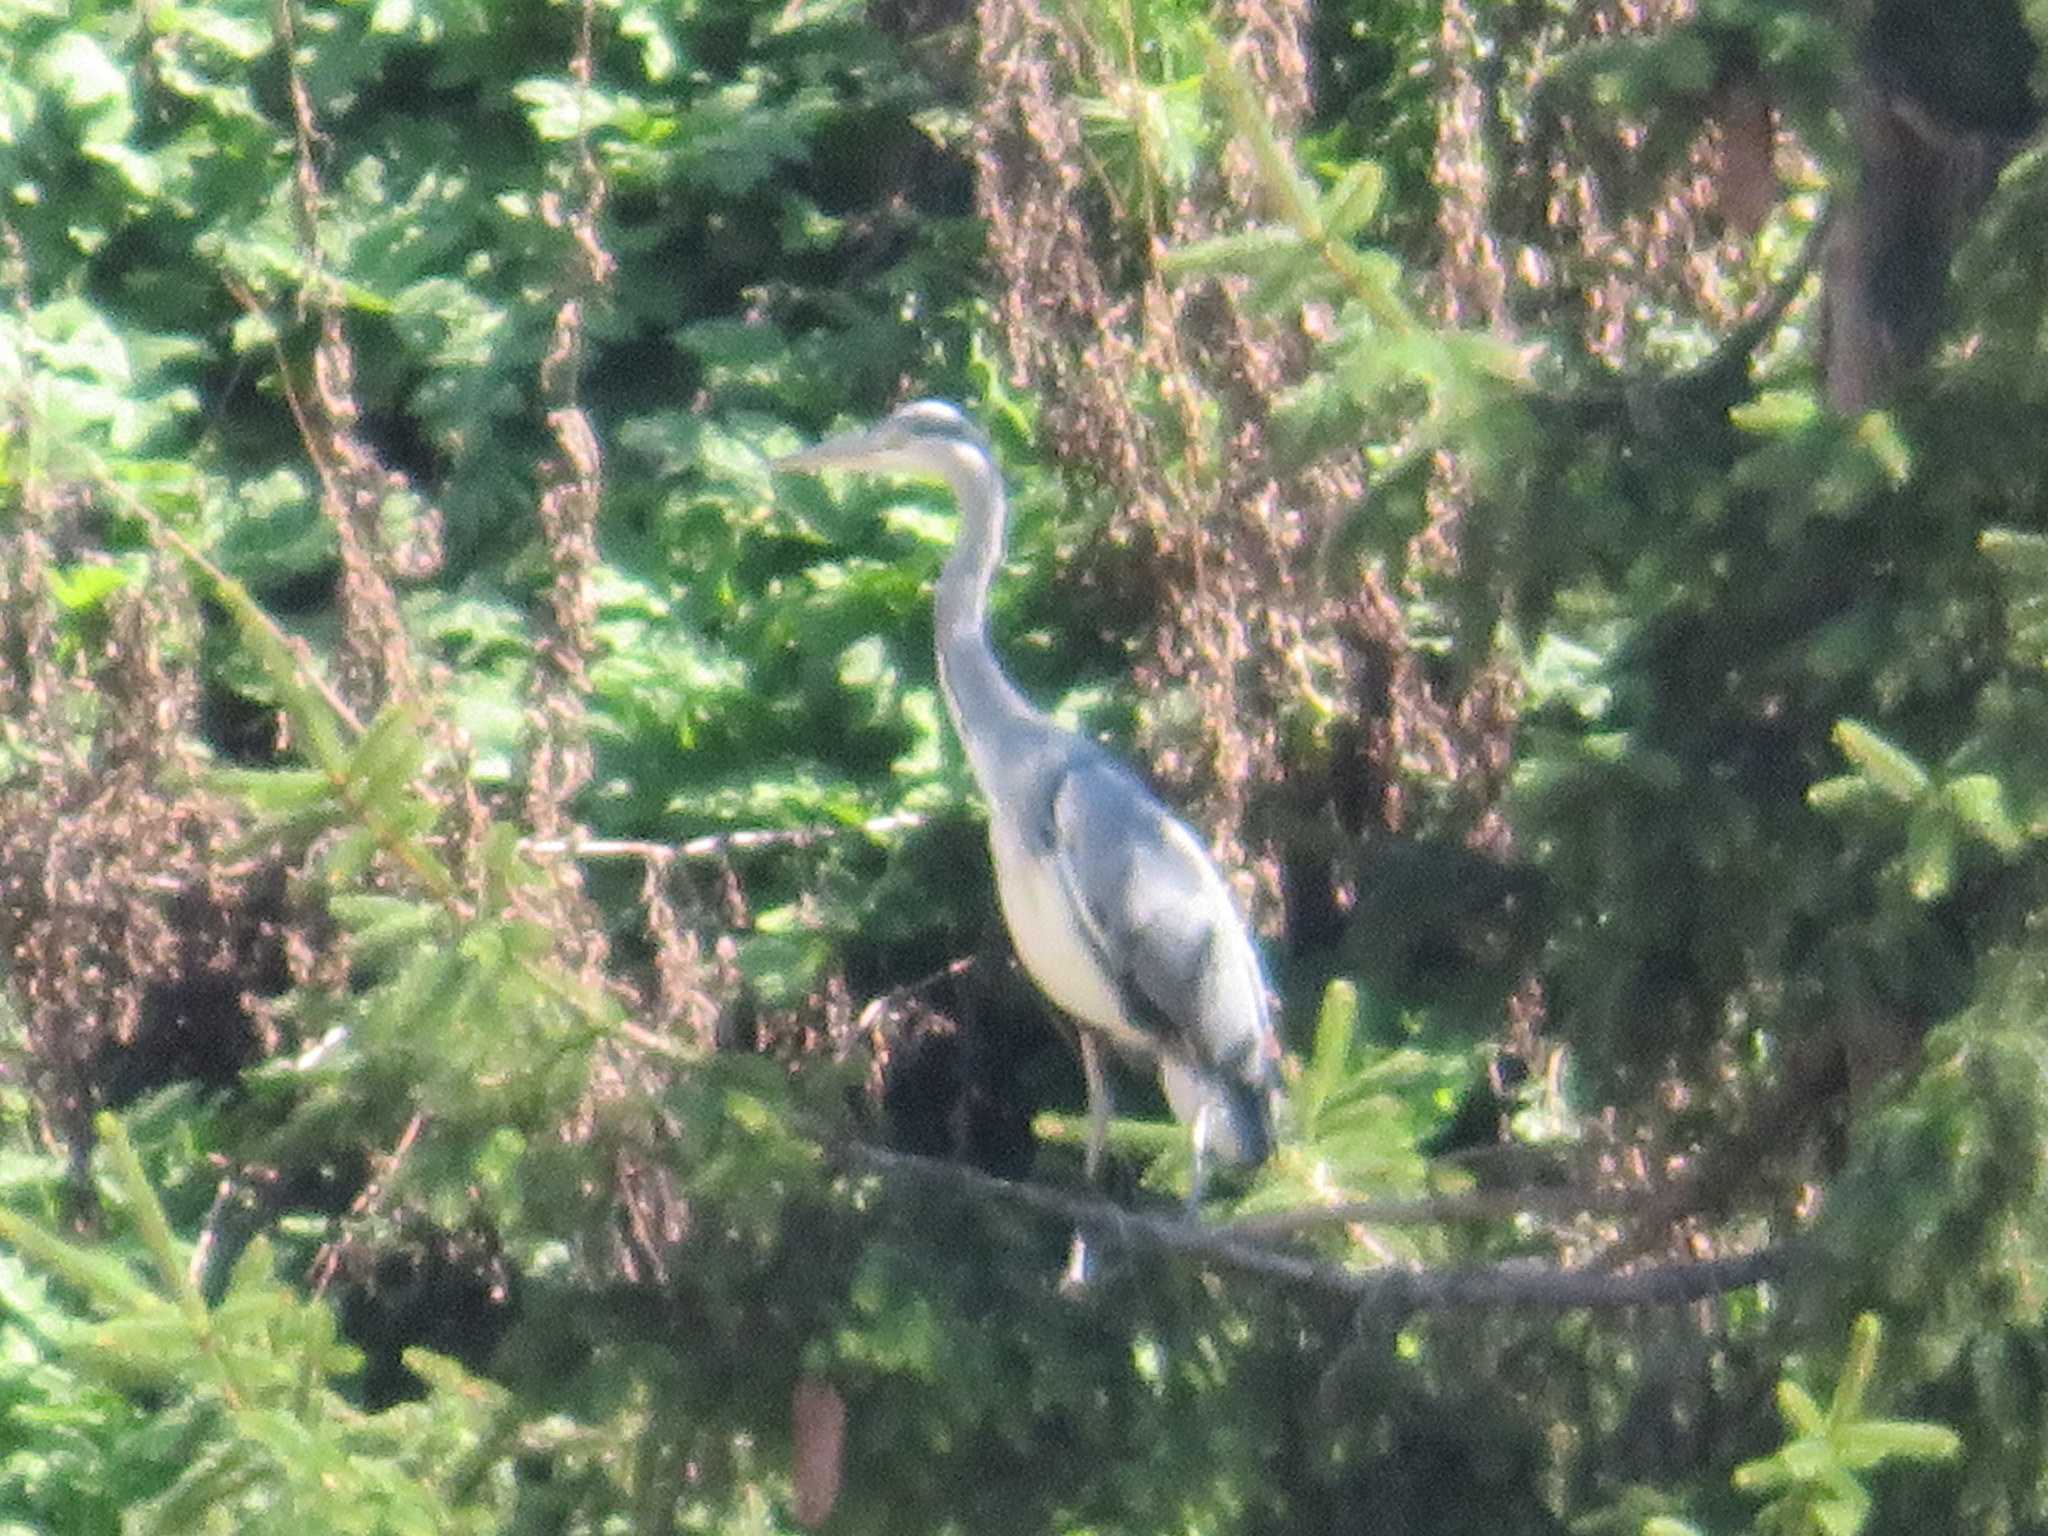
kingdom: Animalia
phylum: Chordata
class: Aves
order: Pelecaniformes
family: Ardeidae
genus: Ardea
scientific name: Ardea cinerea
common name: Grey heron
